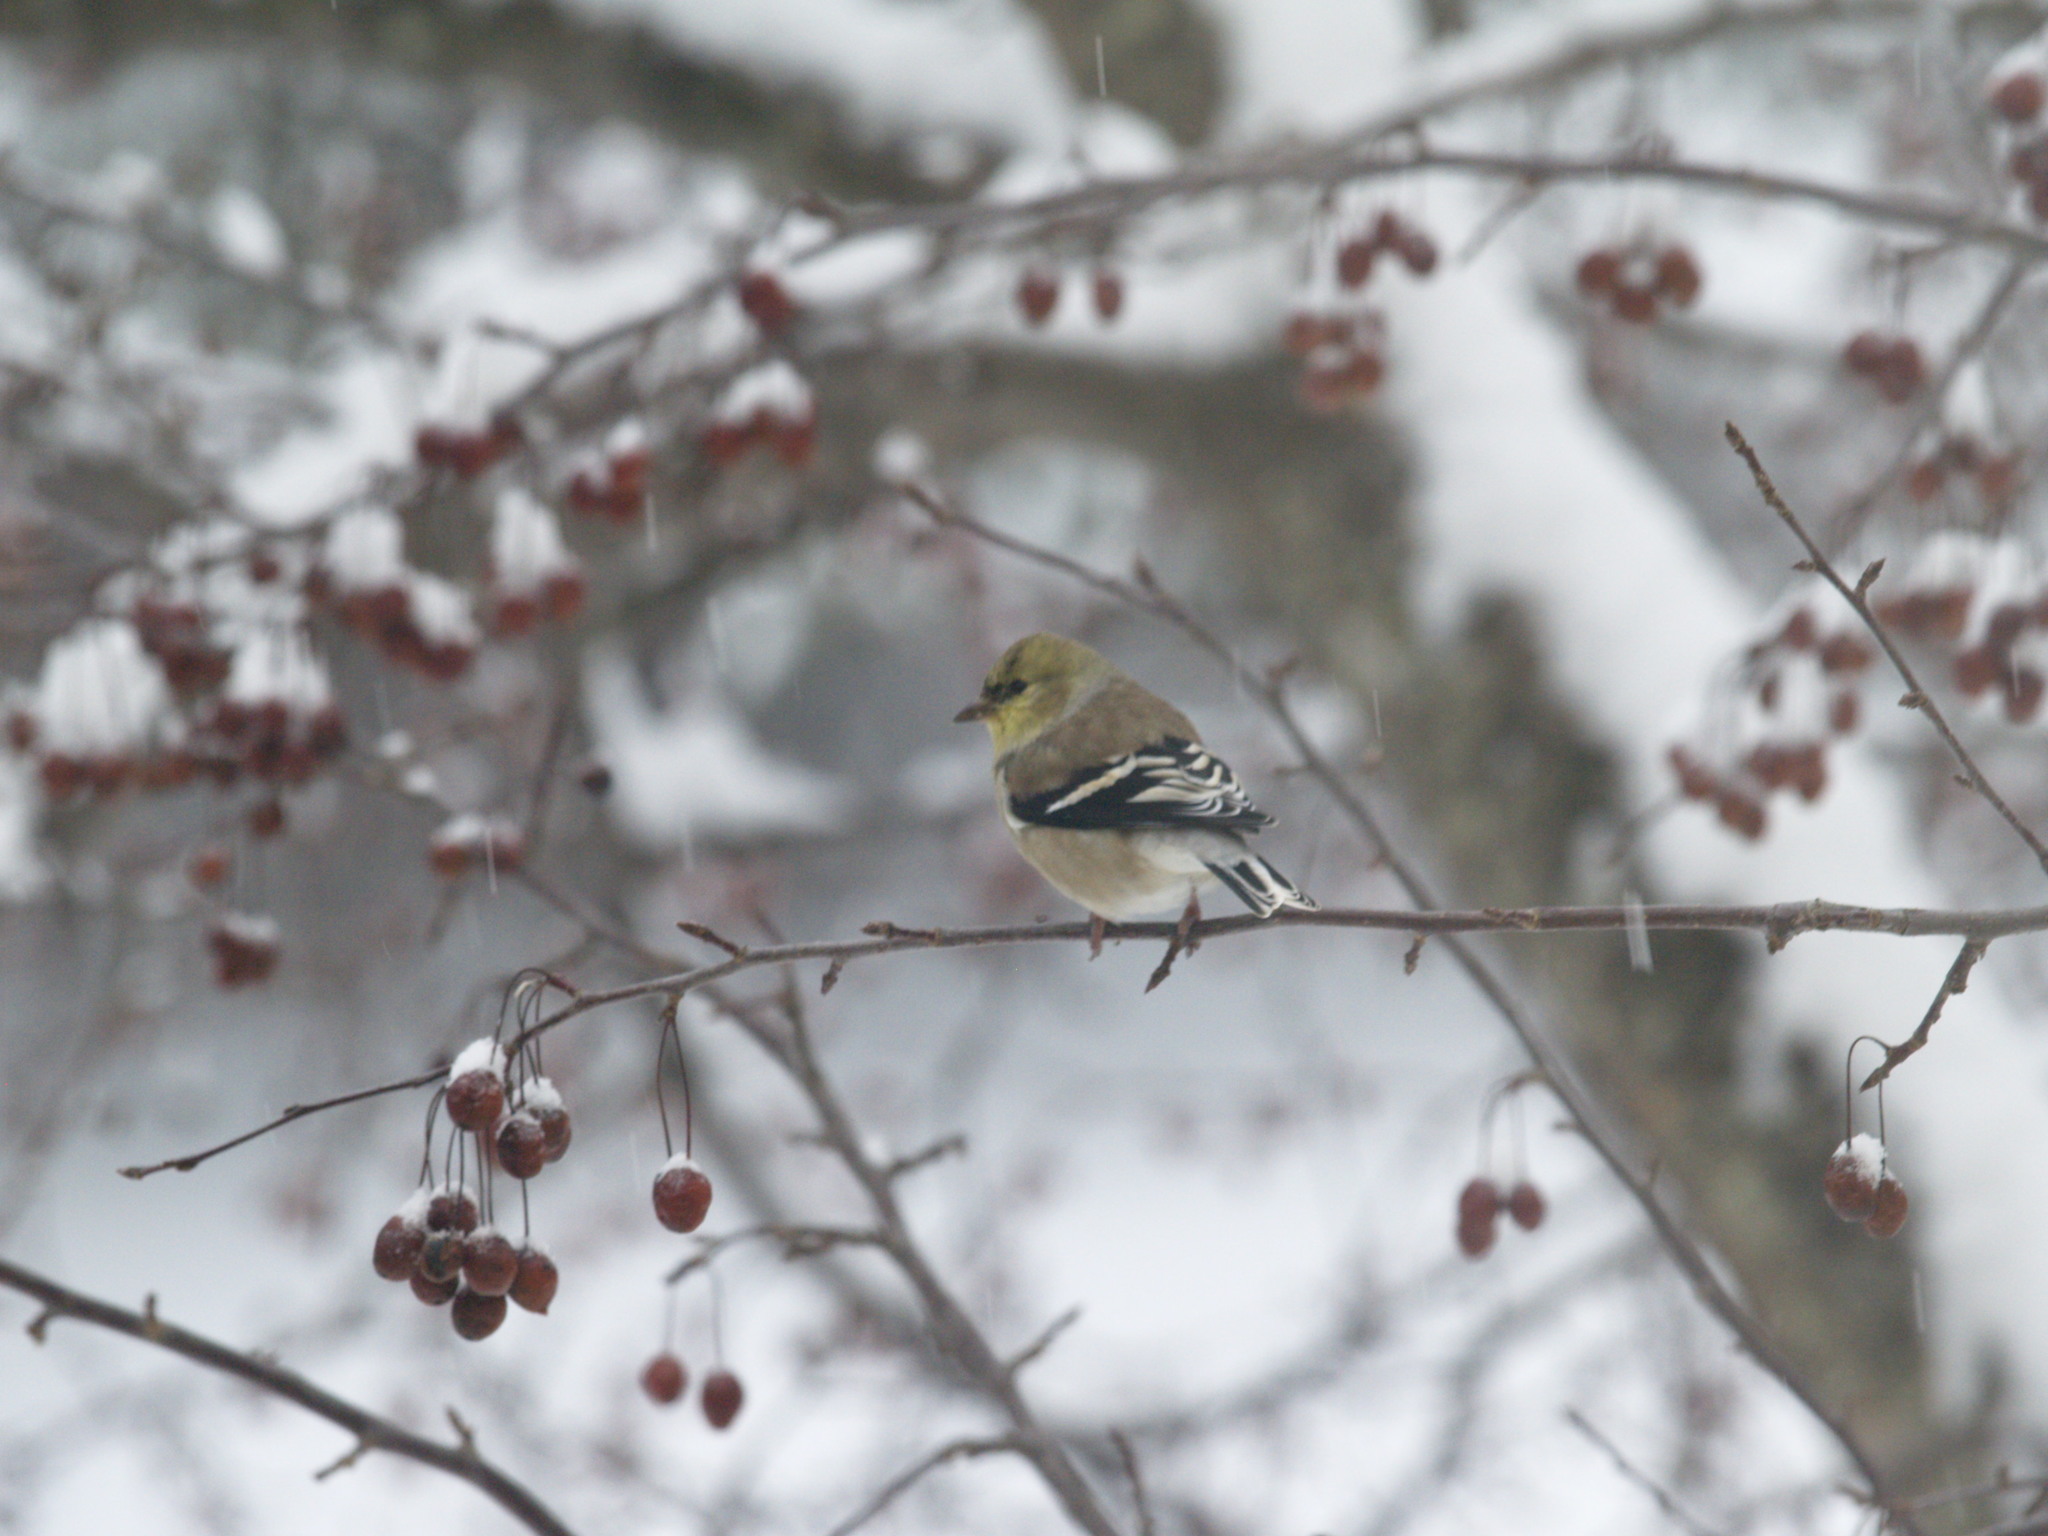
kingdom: Animalia
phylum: Chordata
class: Aves
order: Passeriformes
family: Fringillidae
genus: Spinus
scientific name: Spinus tristis
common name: American goldfinch
